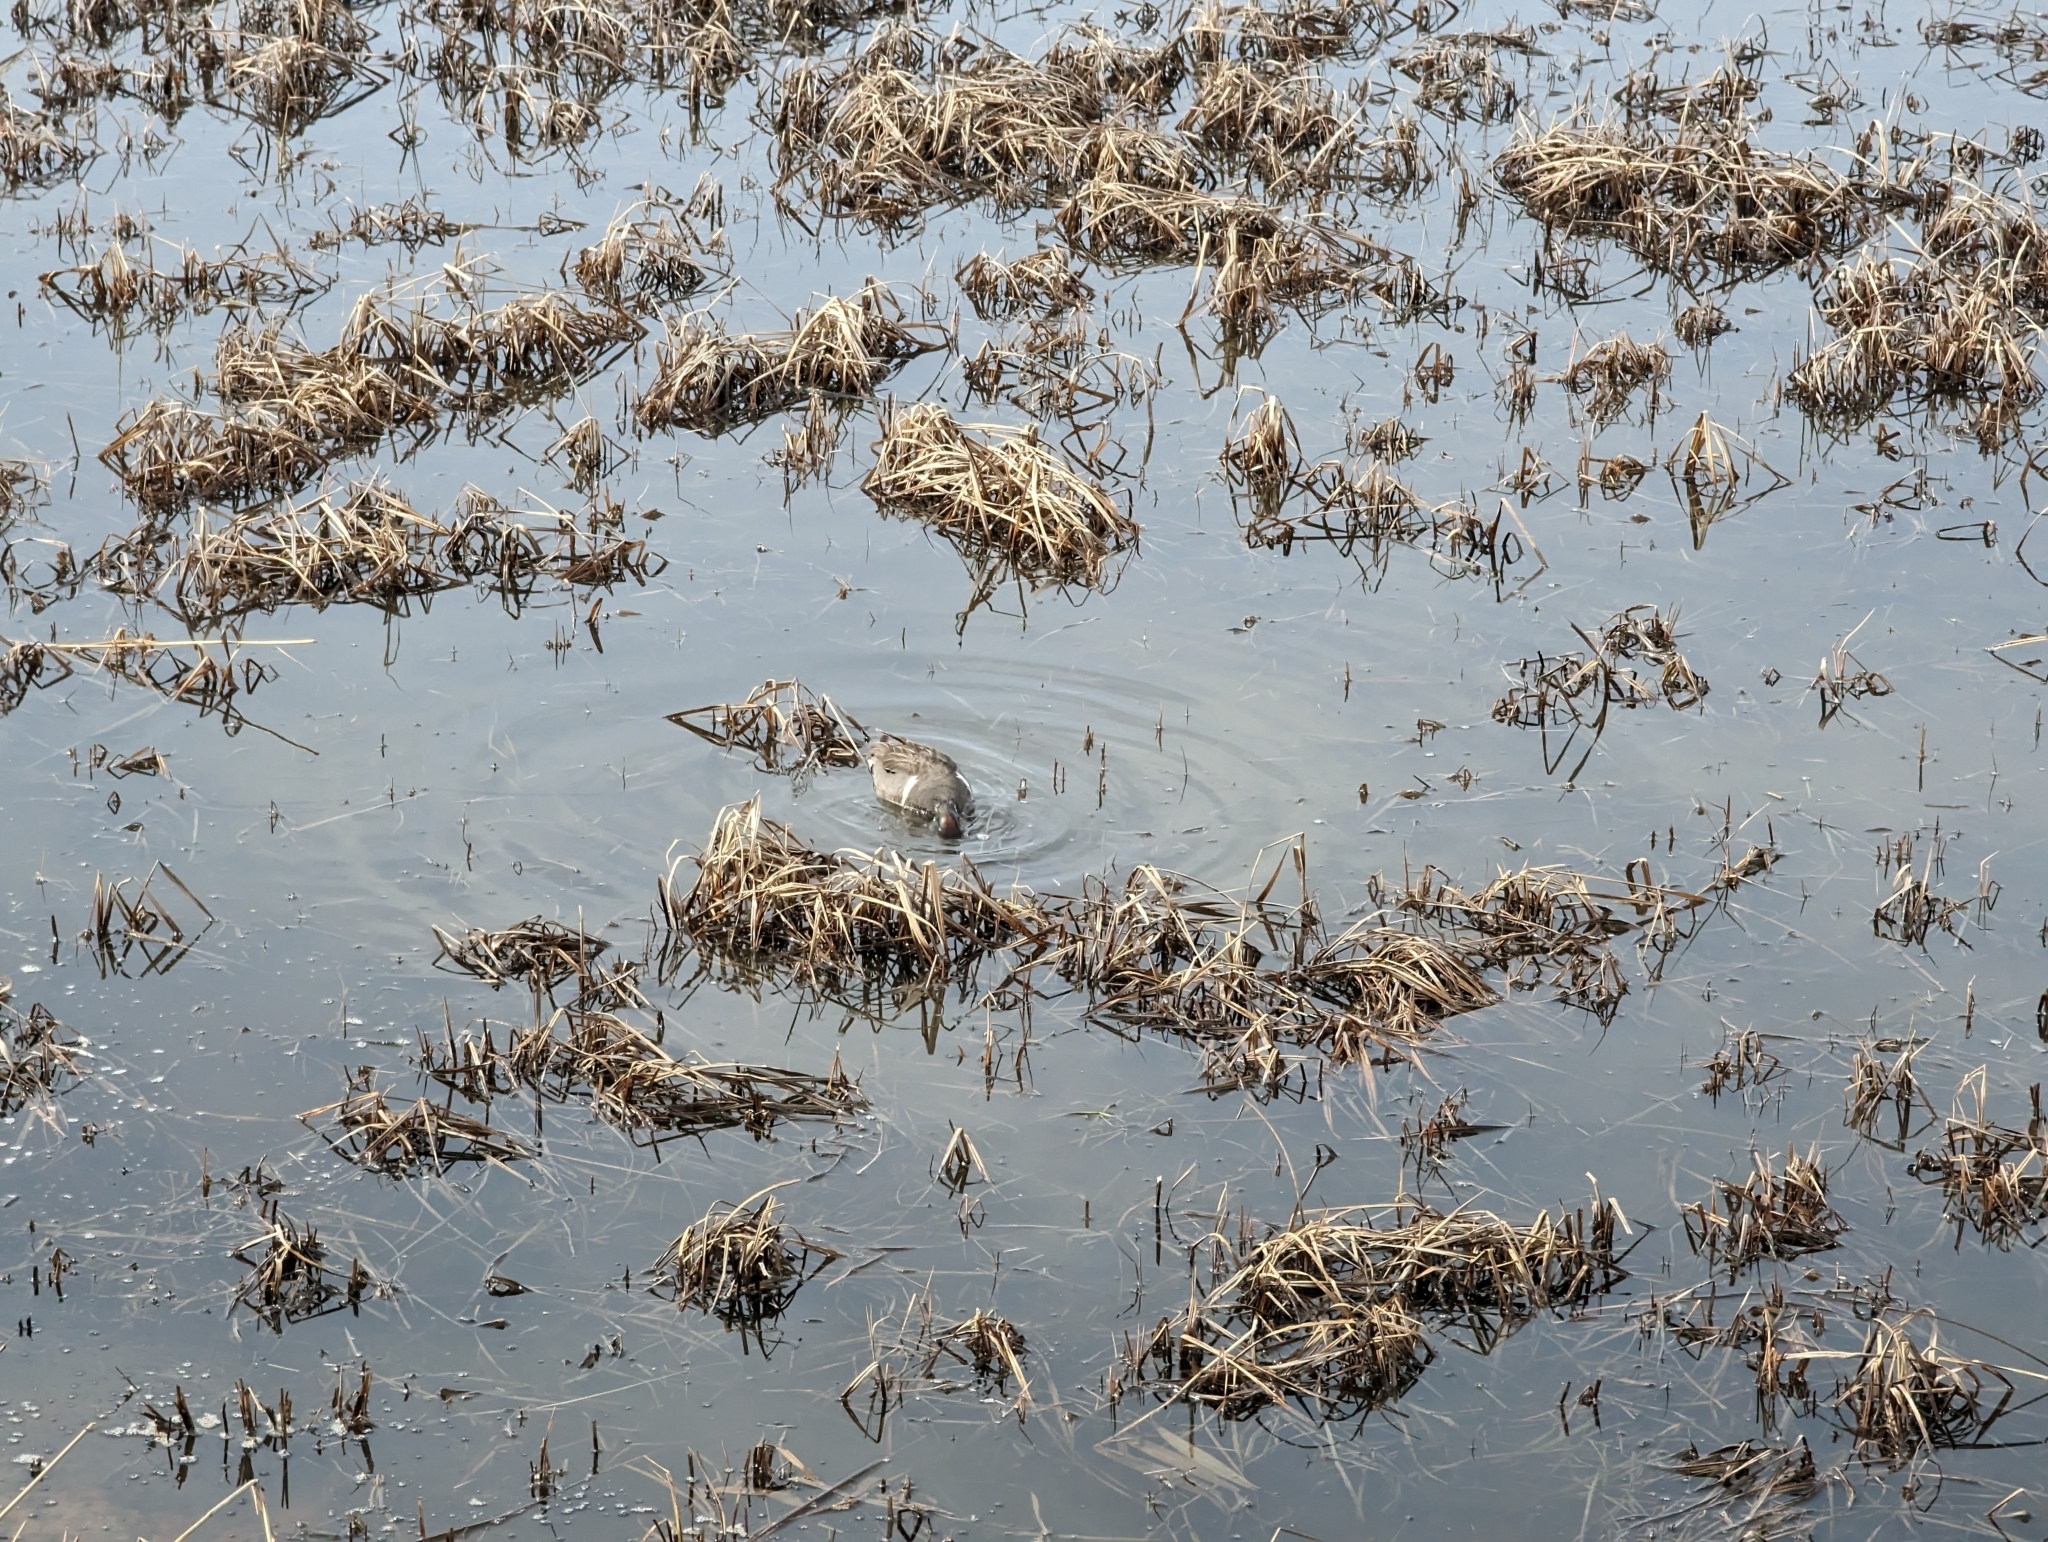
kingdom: Animalia
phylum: Chordata
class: Aves
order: Anseriformes
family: Anatidae
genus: Anas
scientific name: Anas crecca
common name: Eurasian teal
